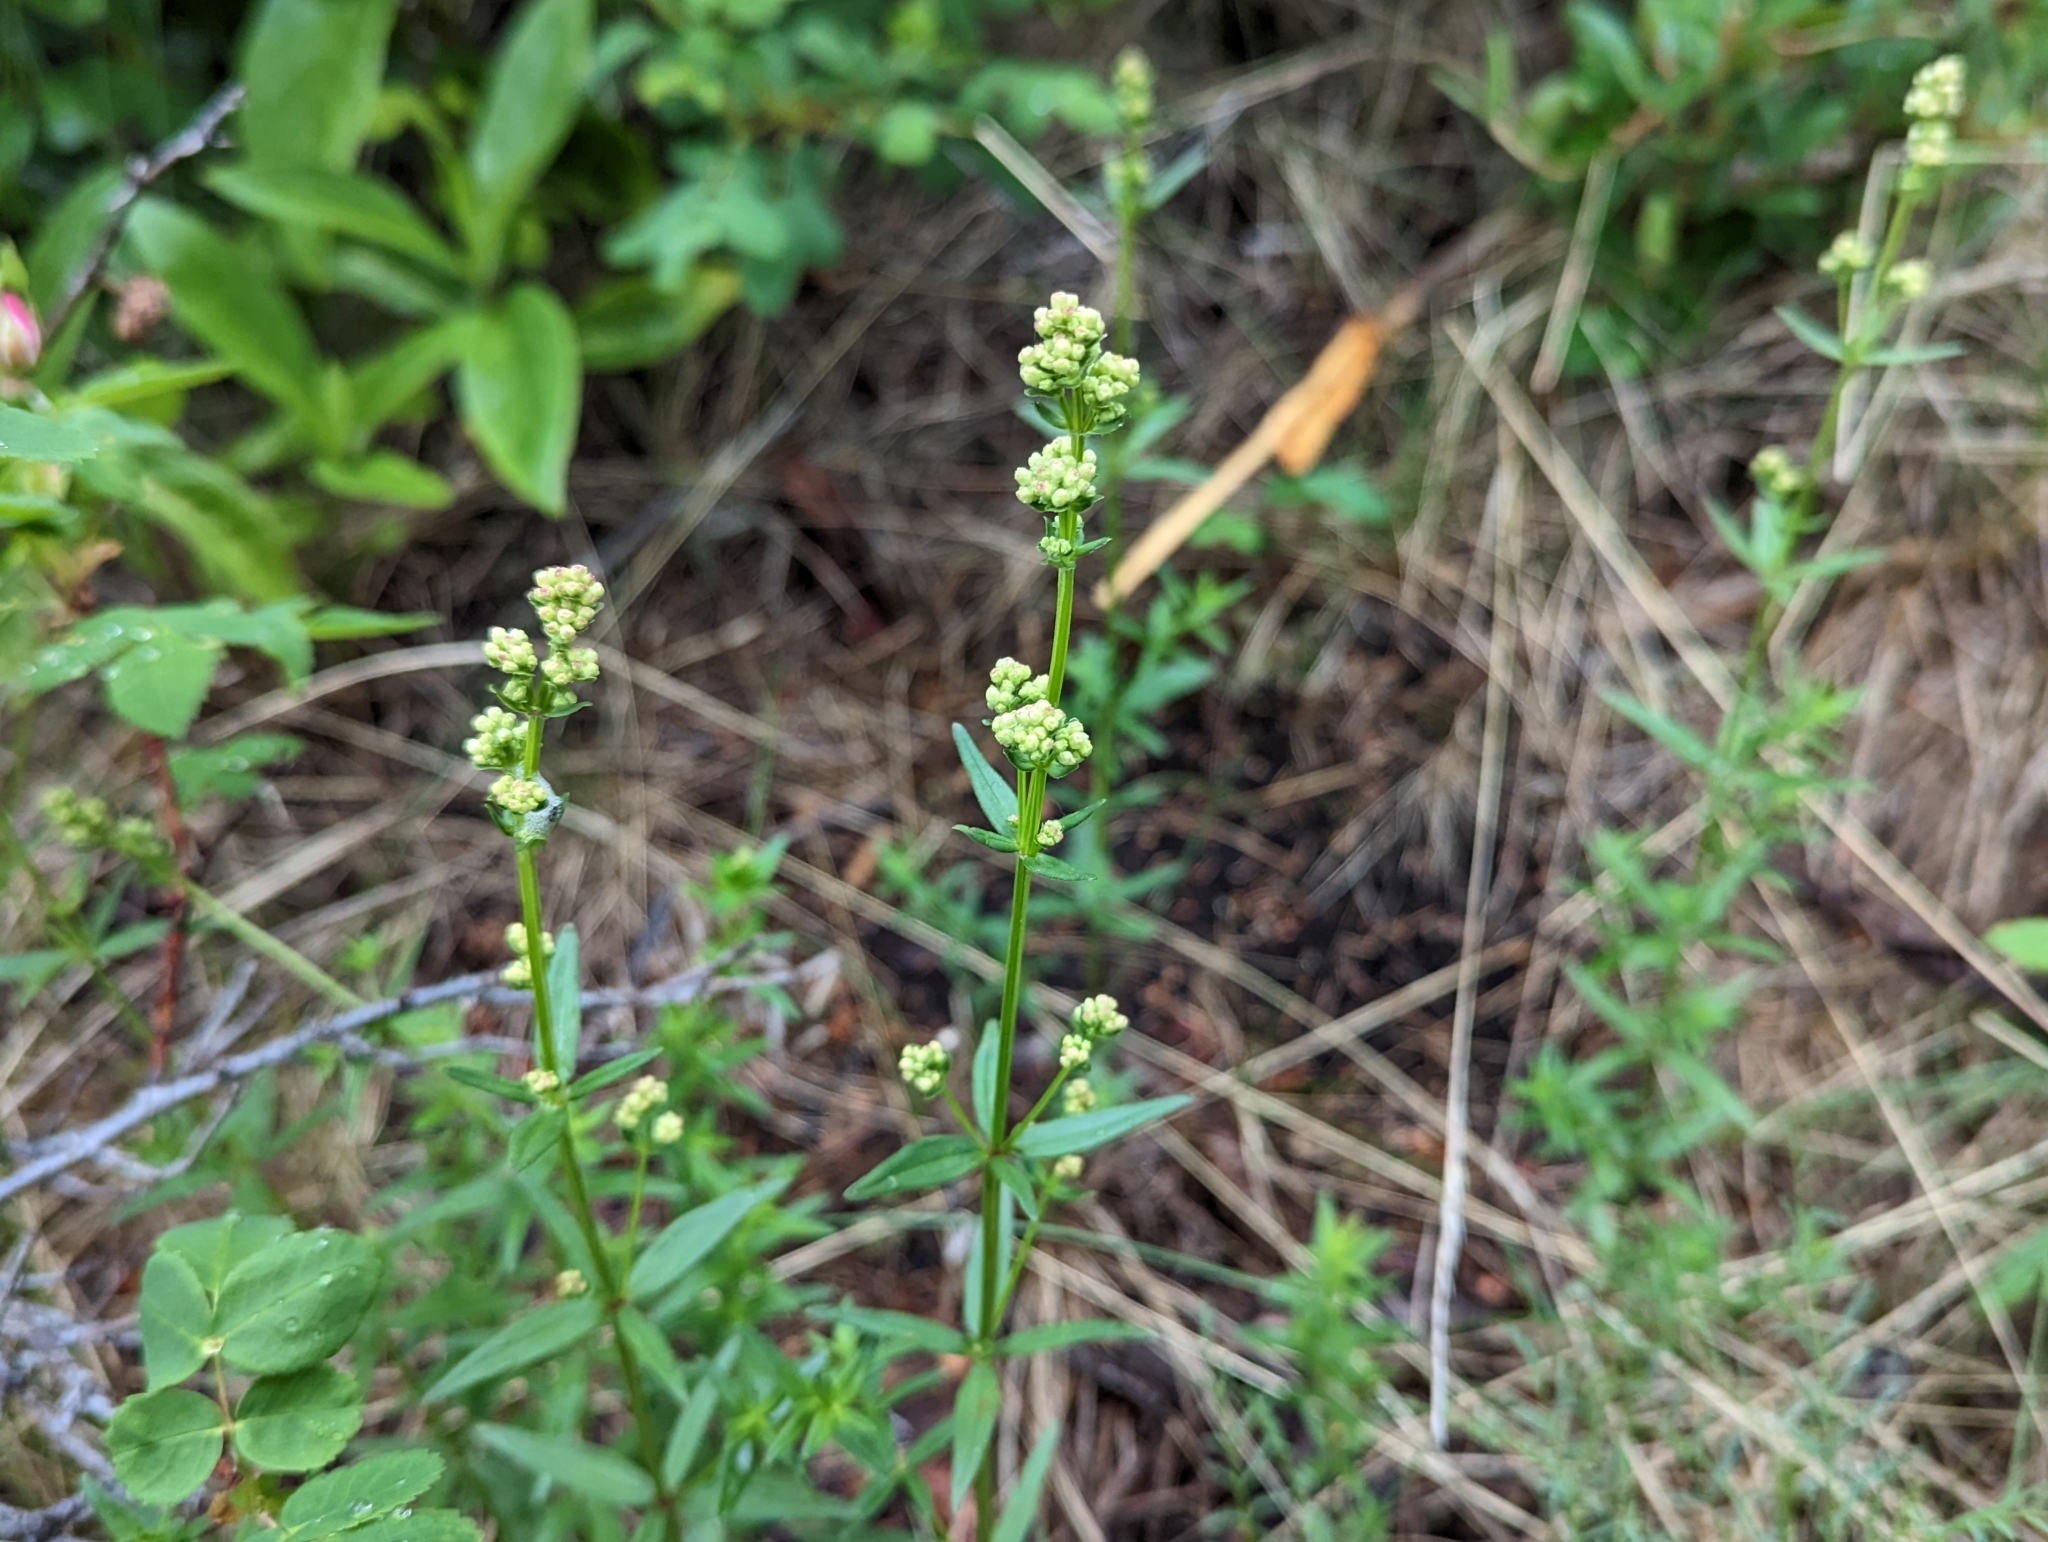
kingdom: Plantae
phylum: Tracheophyta
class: Magnoliopsida
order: Gentianales
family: Rubiaceae
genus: Galium
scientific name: Galium boreale
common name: Northern bedstraw
